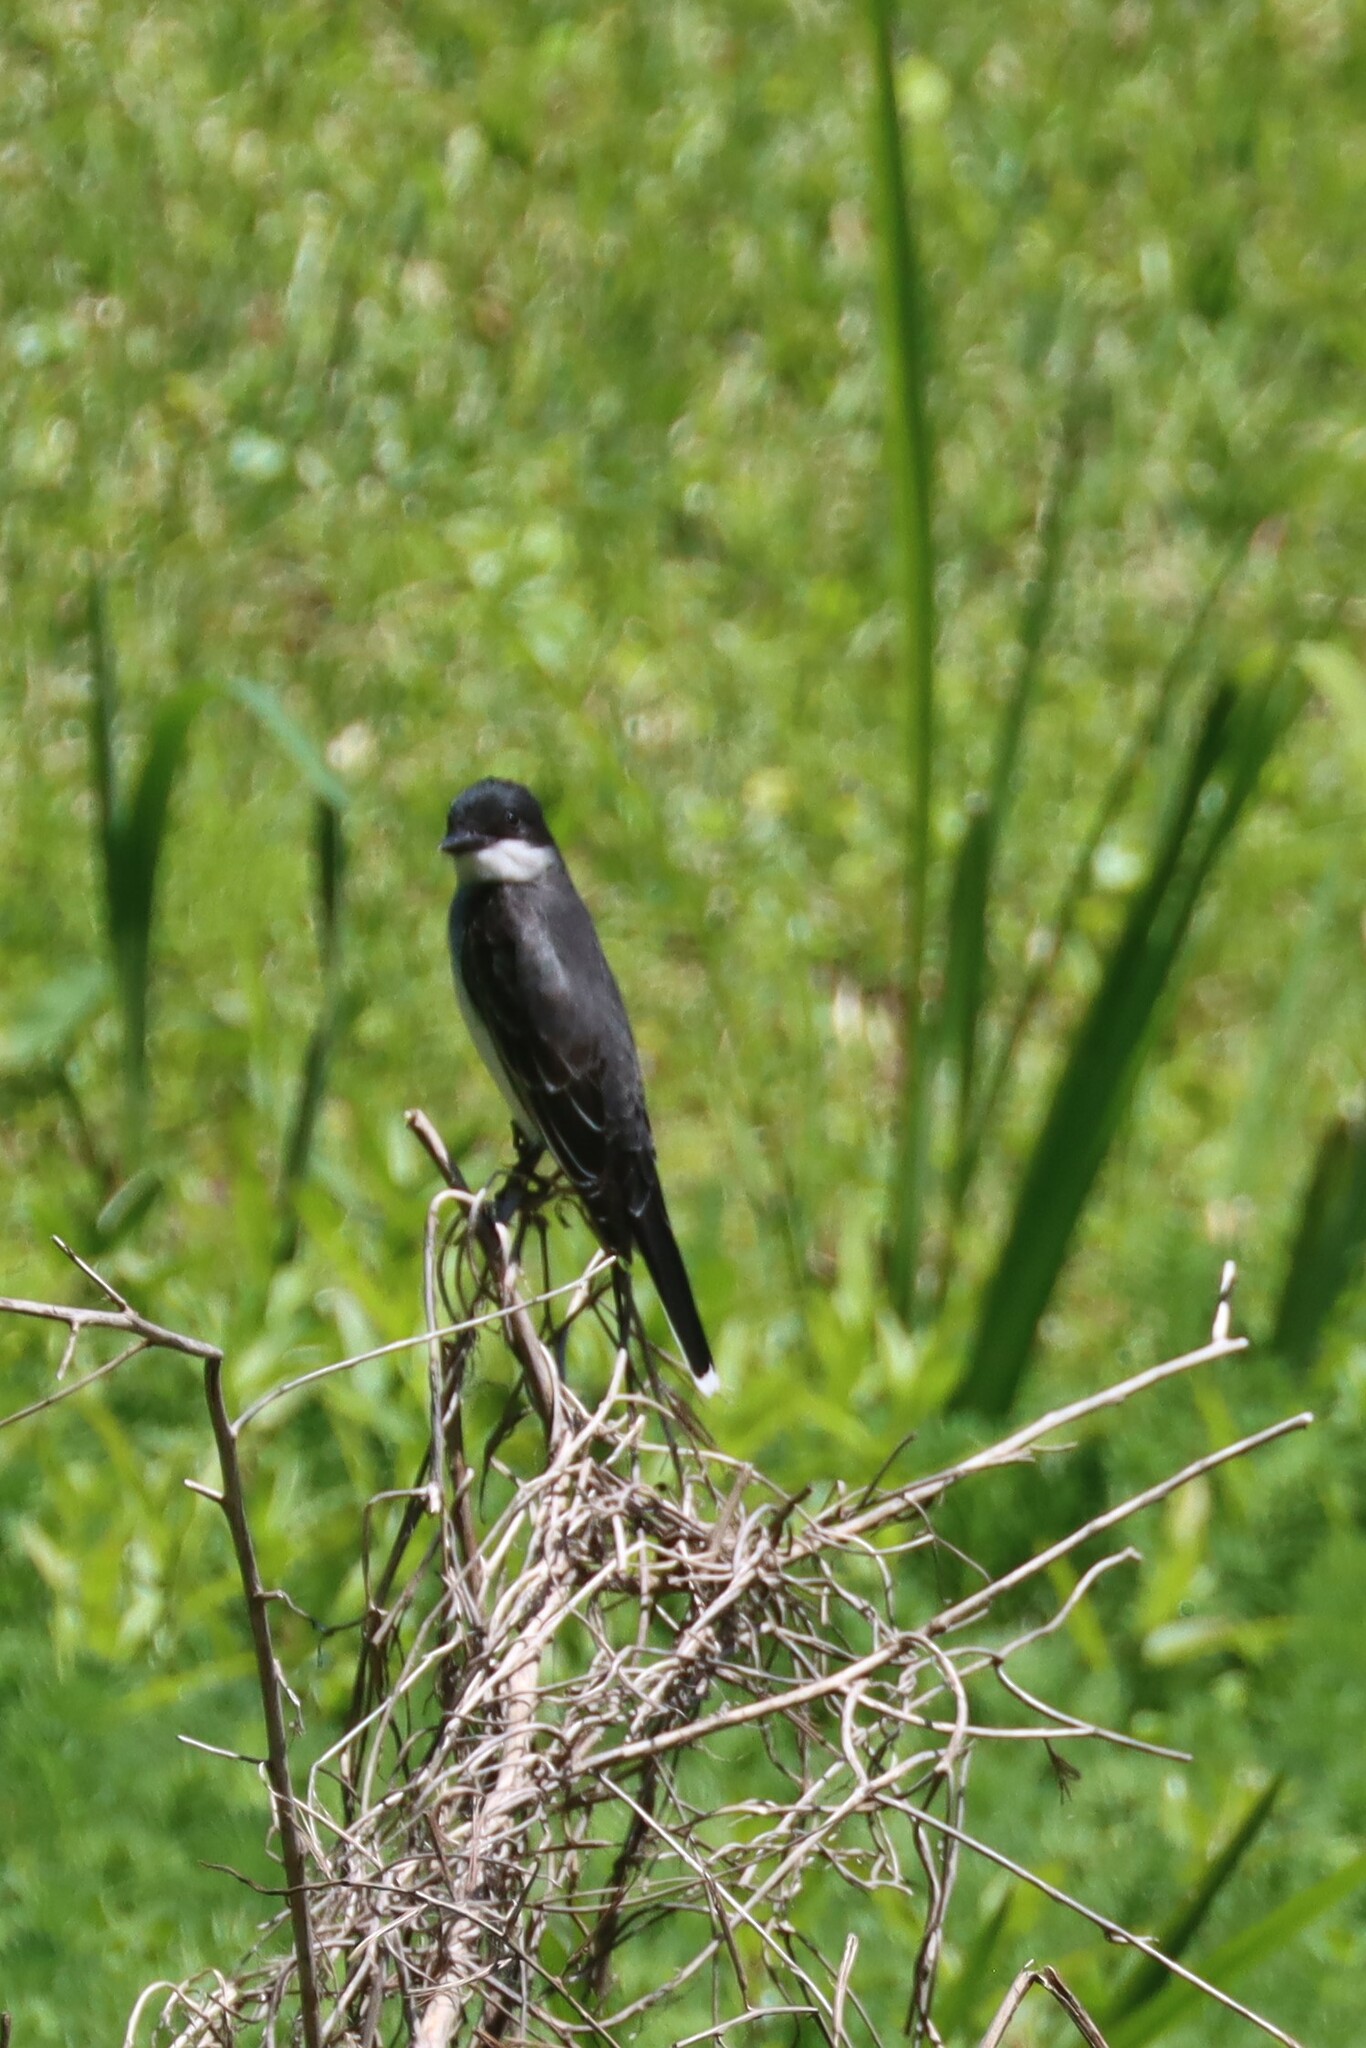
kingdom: Animalia
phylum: Chordata
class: Aves
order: Passeriformes
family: Tyrannidae
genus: Tyrannus
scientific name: Tyrannus tyrannus
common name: Eastern kingbird
